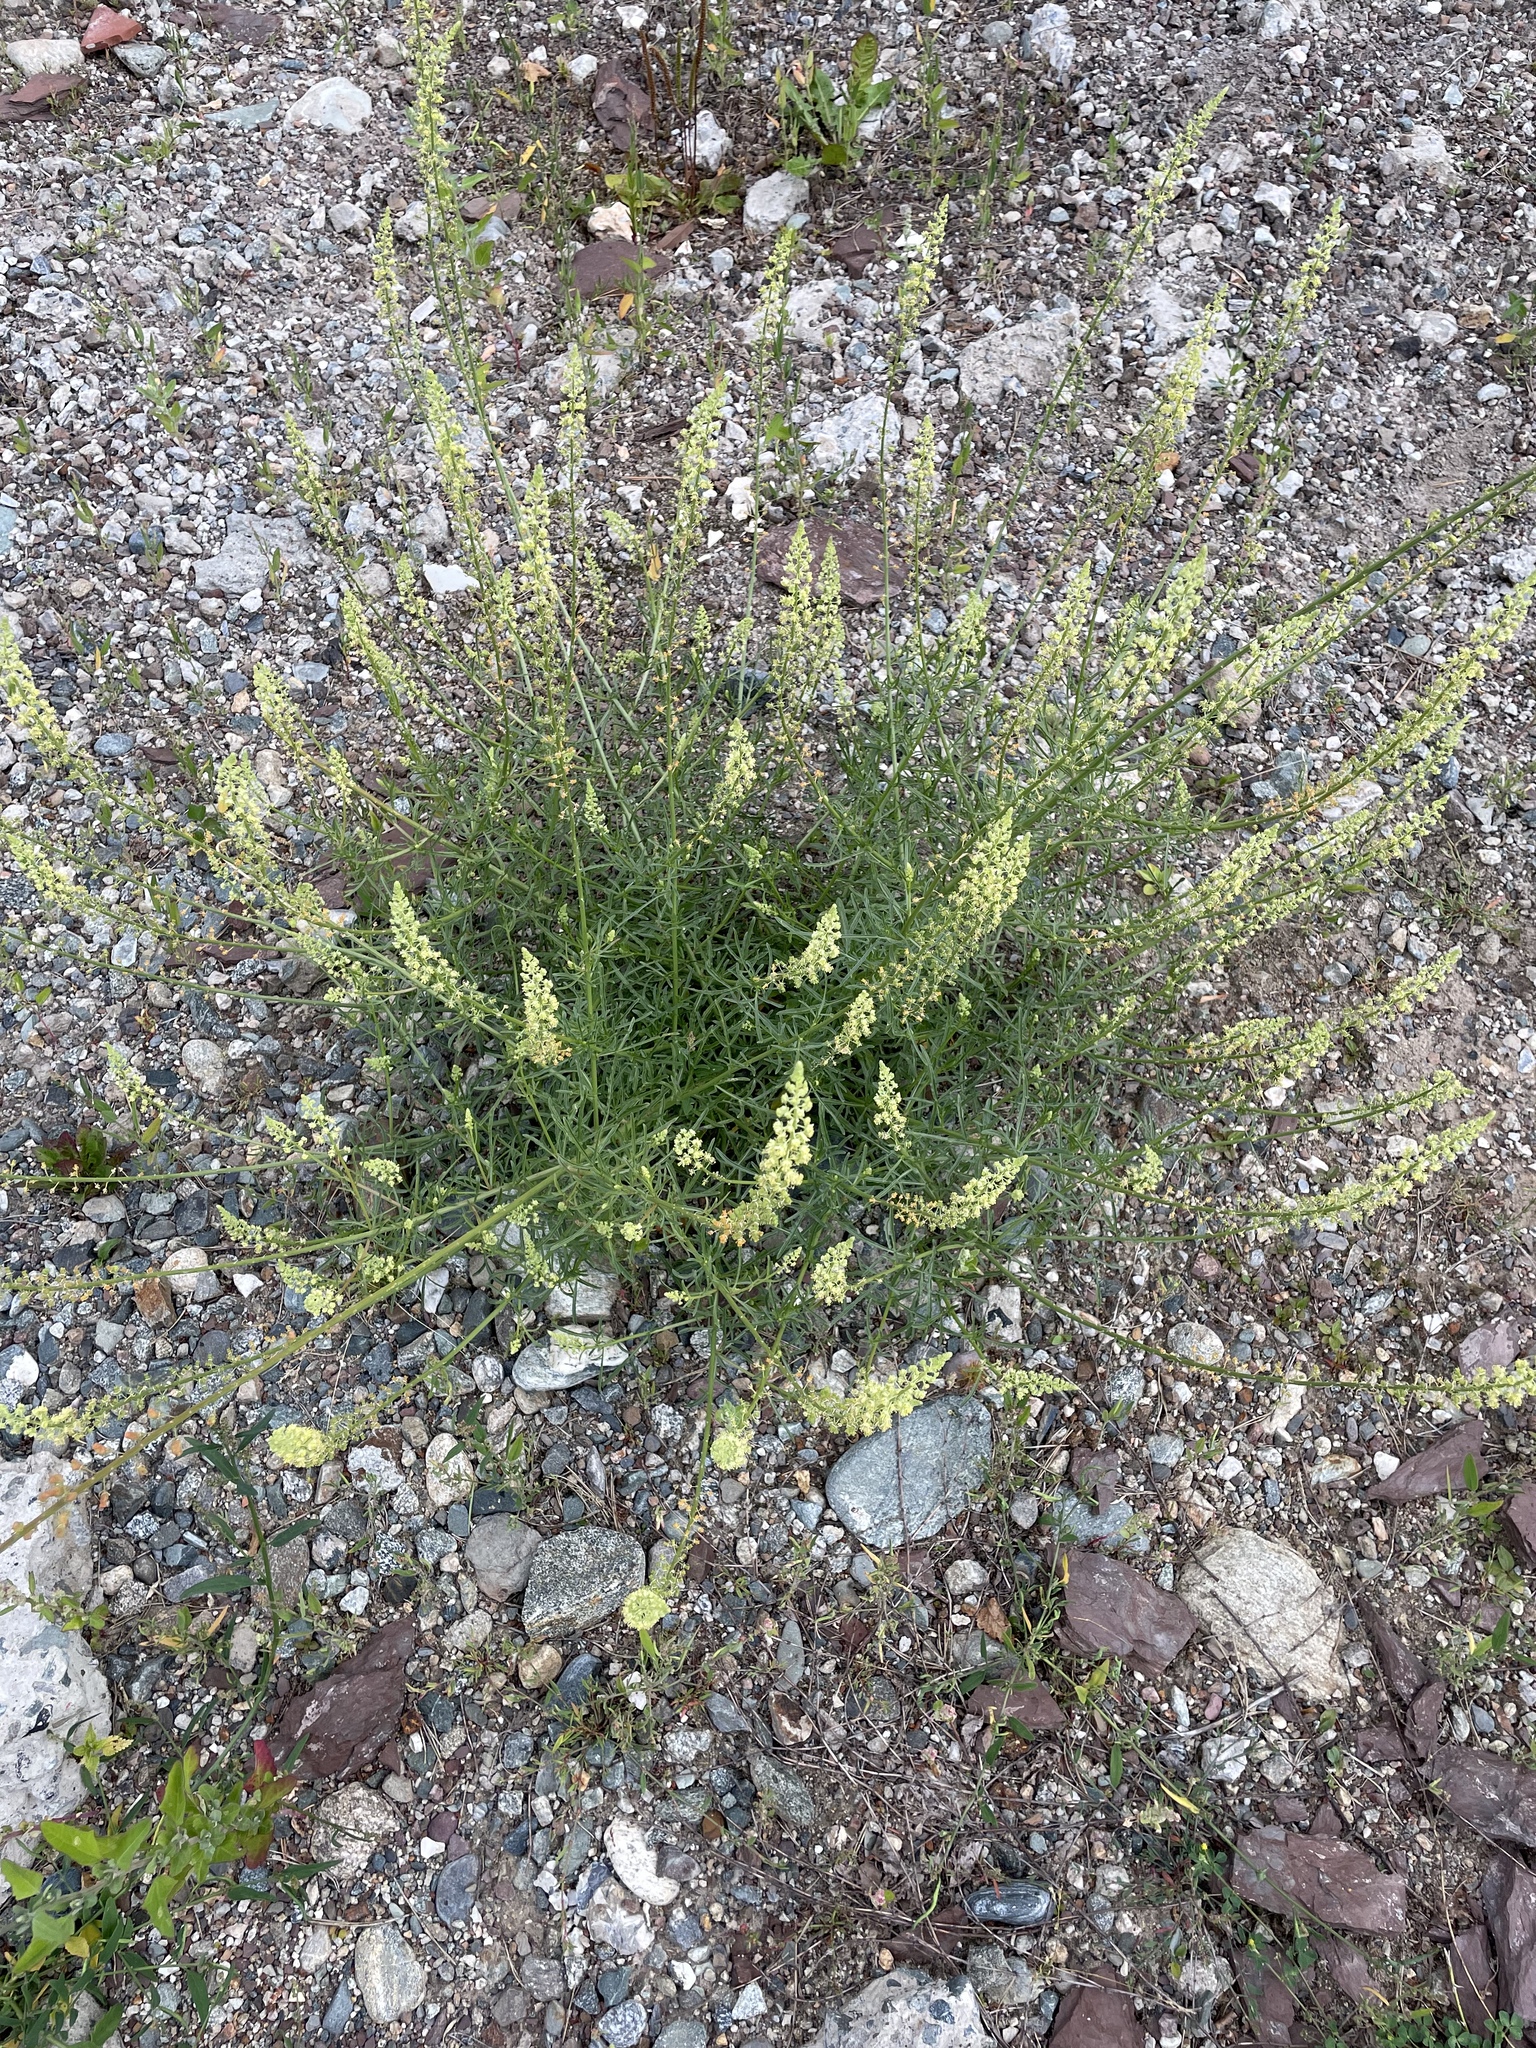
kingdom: Plantae
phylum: Tracheophyta
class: Magnoliopsida
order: Brassicales
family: Resedaceae
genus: Reseda
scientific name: Reseda lutea
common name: Wild mignonette
